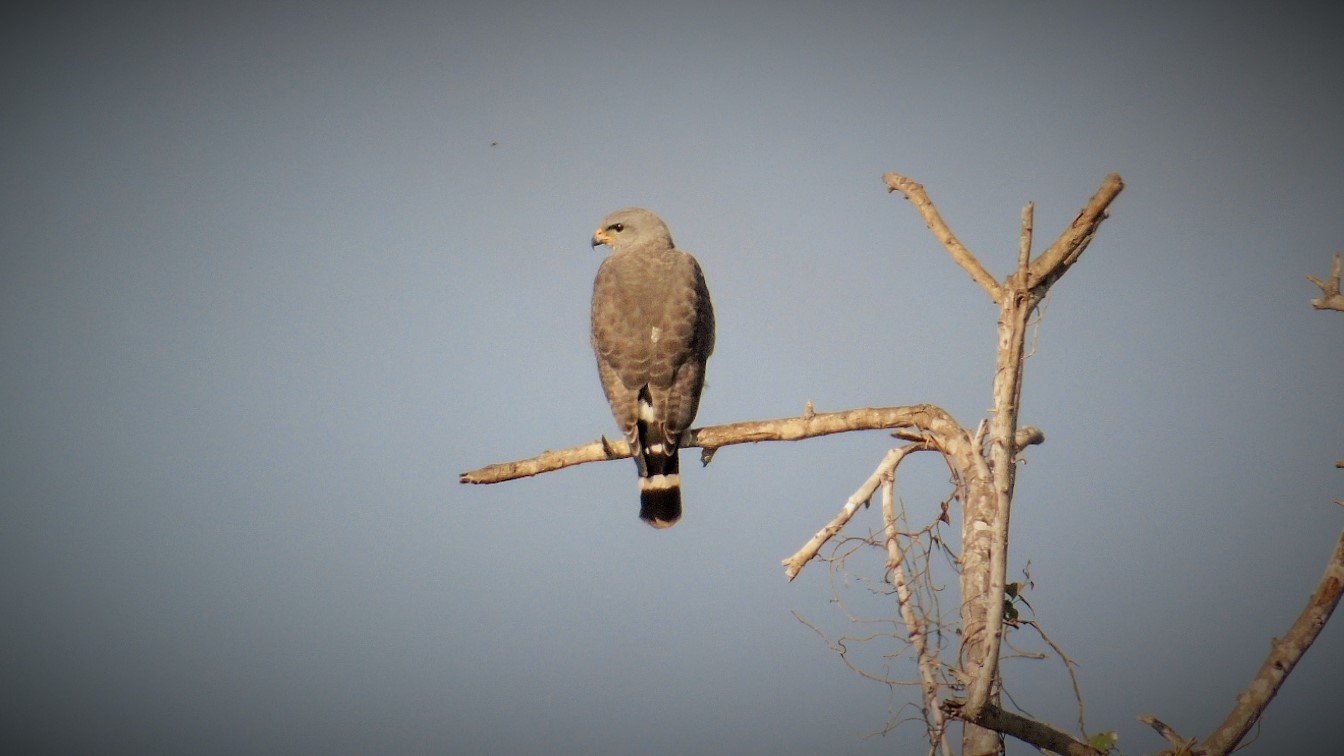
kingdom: Animalia
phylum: Chordata
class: Aves
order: Accipitriformes
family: Accipitridae
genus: Buteo
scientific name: Buteo nitidus
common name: Grey-lined hawk
